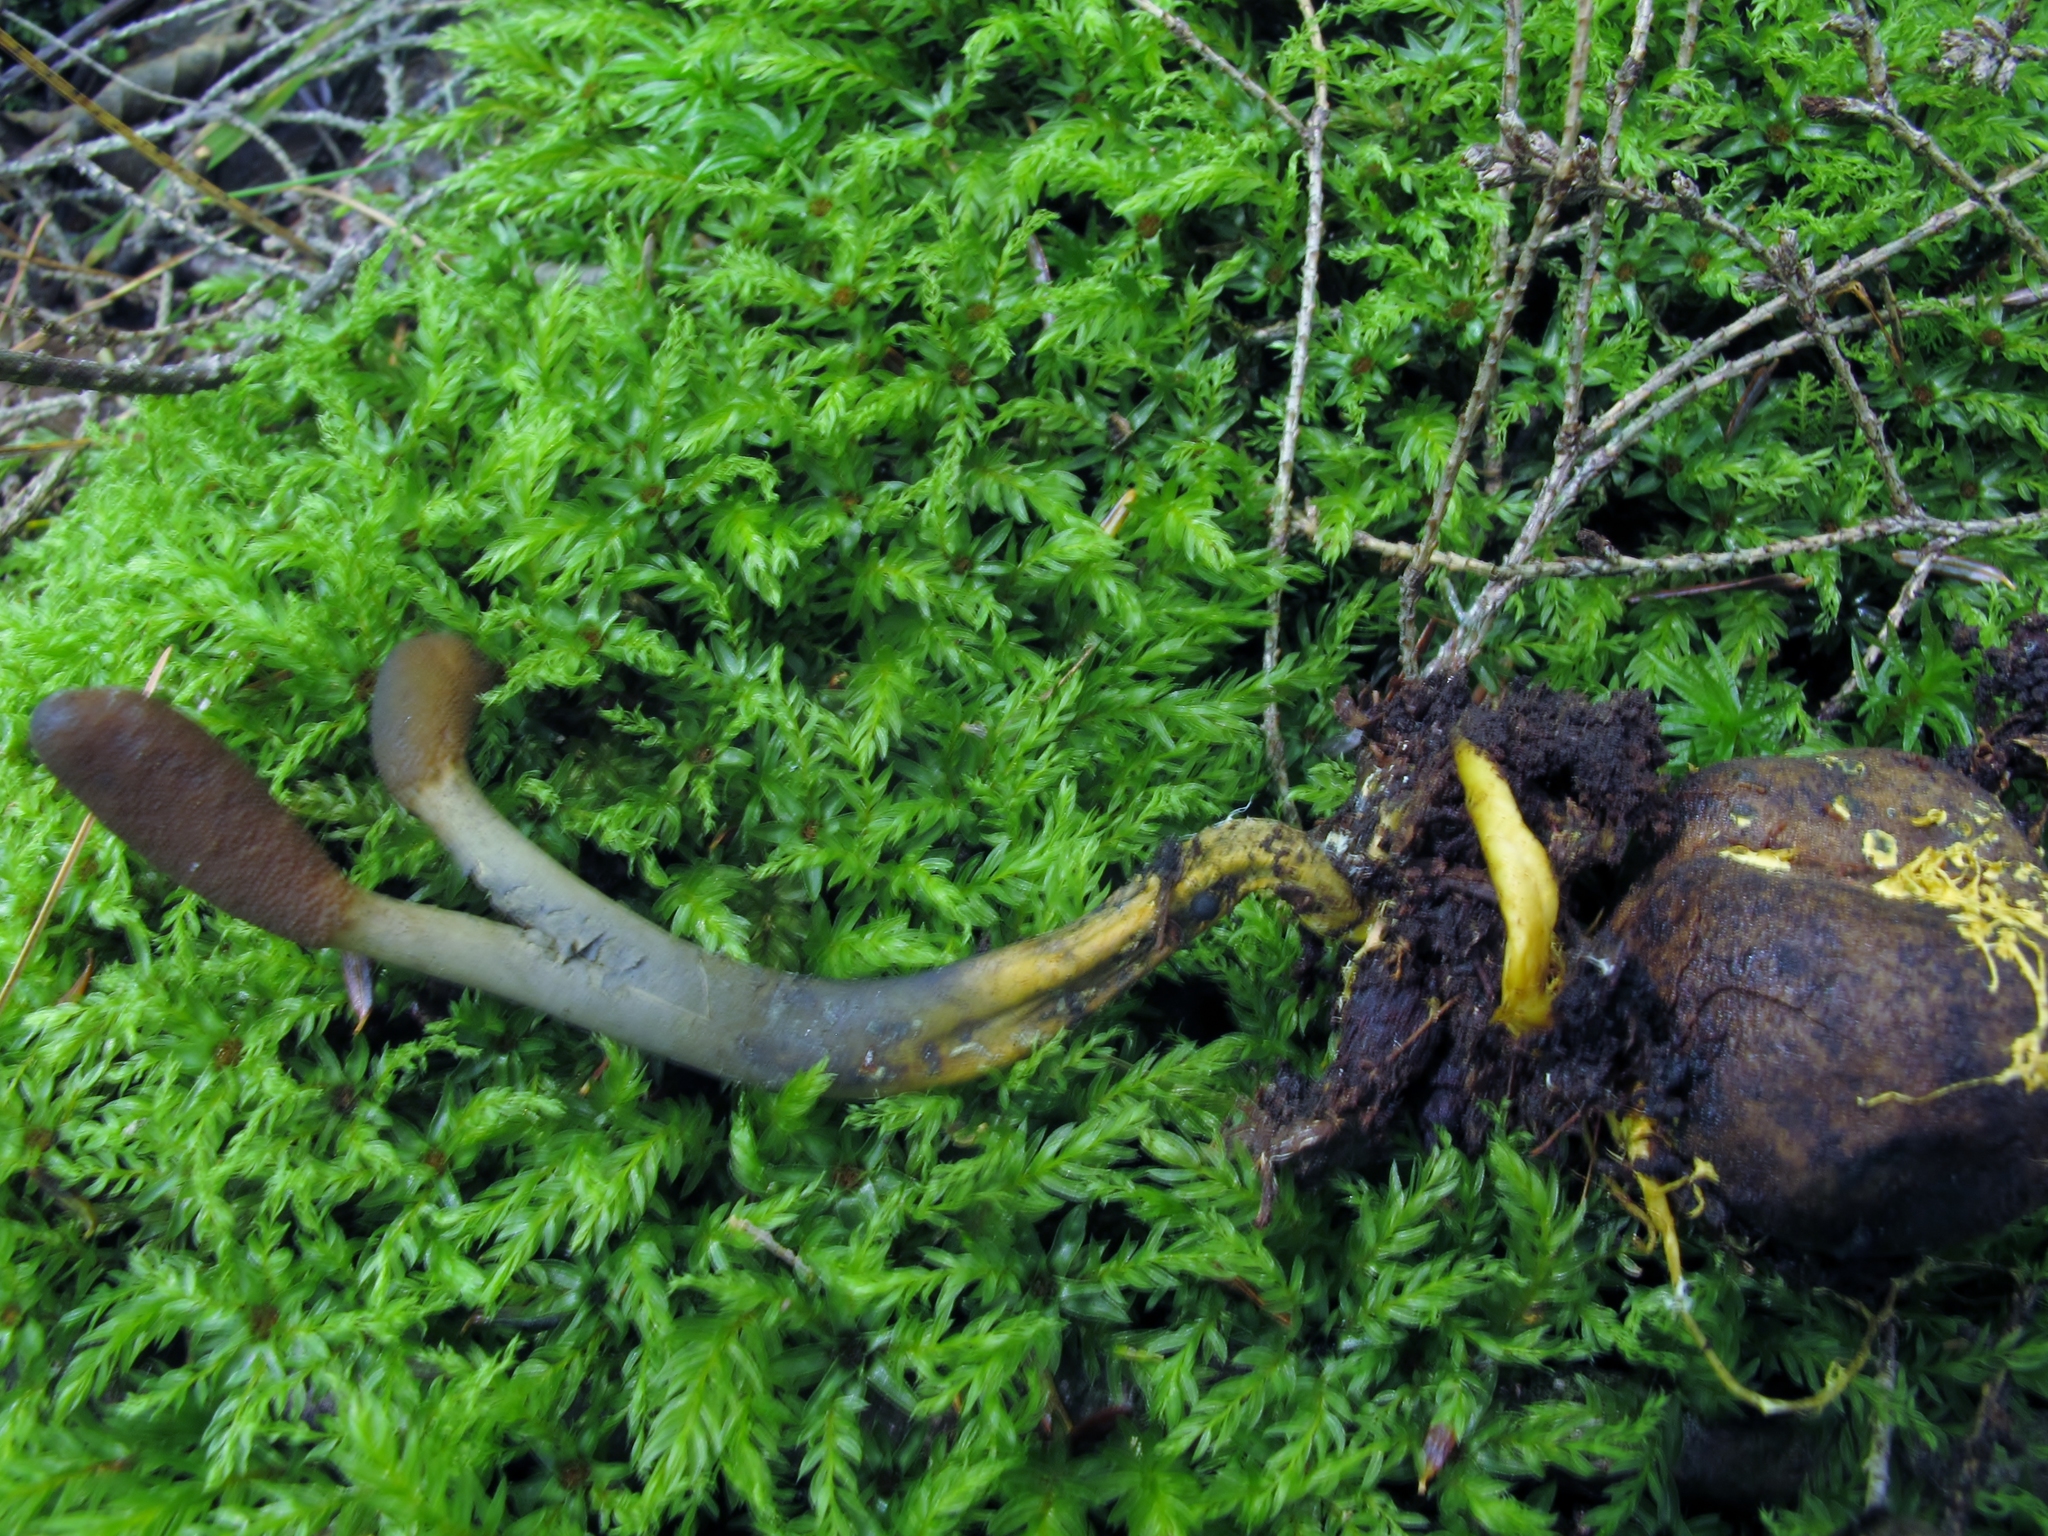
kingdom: Fungi
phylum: Ascomycota
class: Sordariomycetes
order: Hypocreales
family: Ophiocordycipitaceae
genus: Tolypocladium
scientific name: Tolypocladium ophioglossoides
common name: Snaketongue truffleclub
